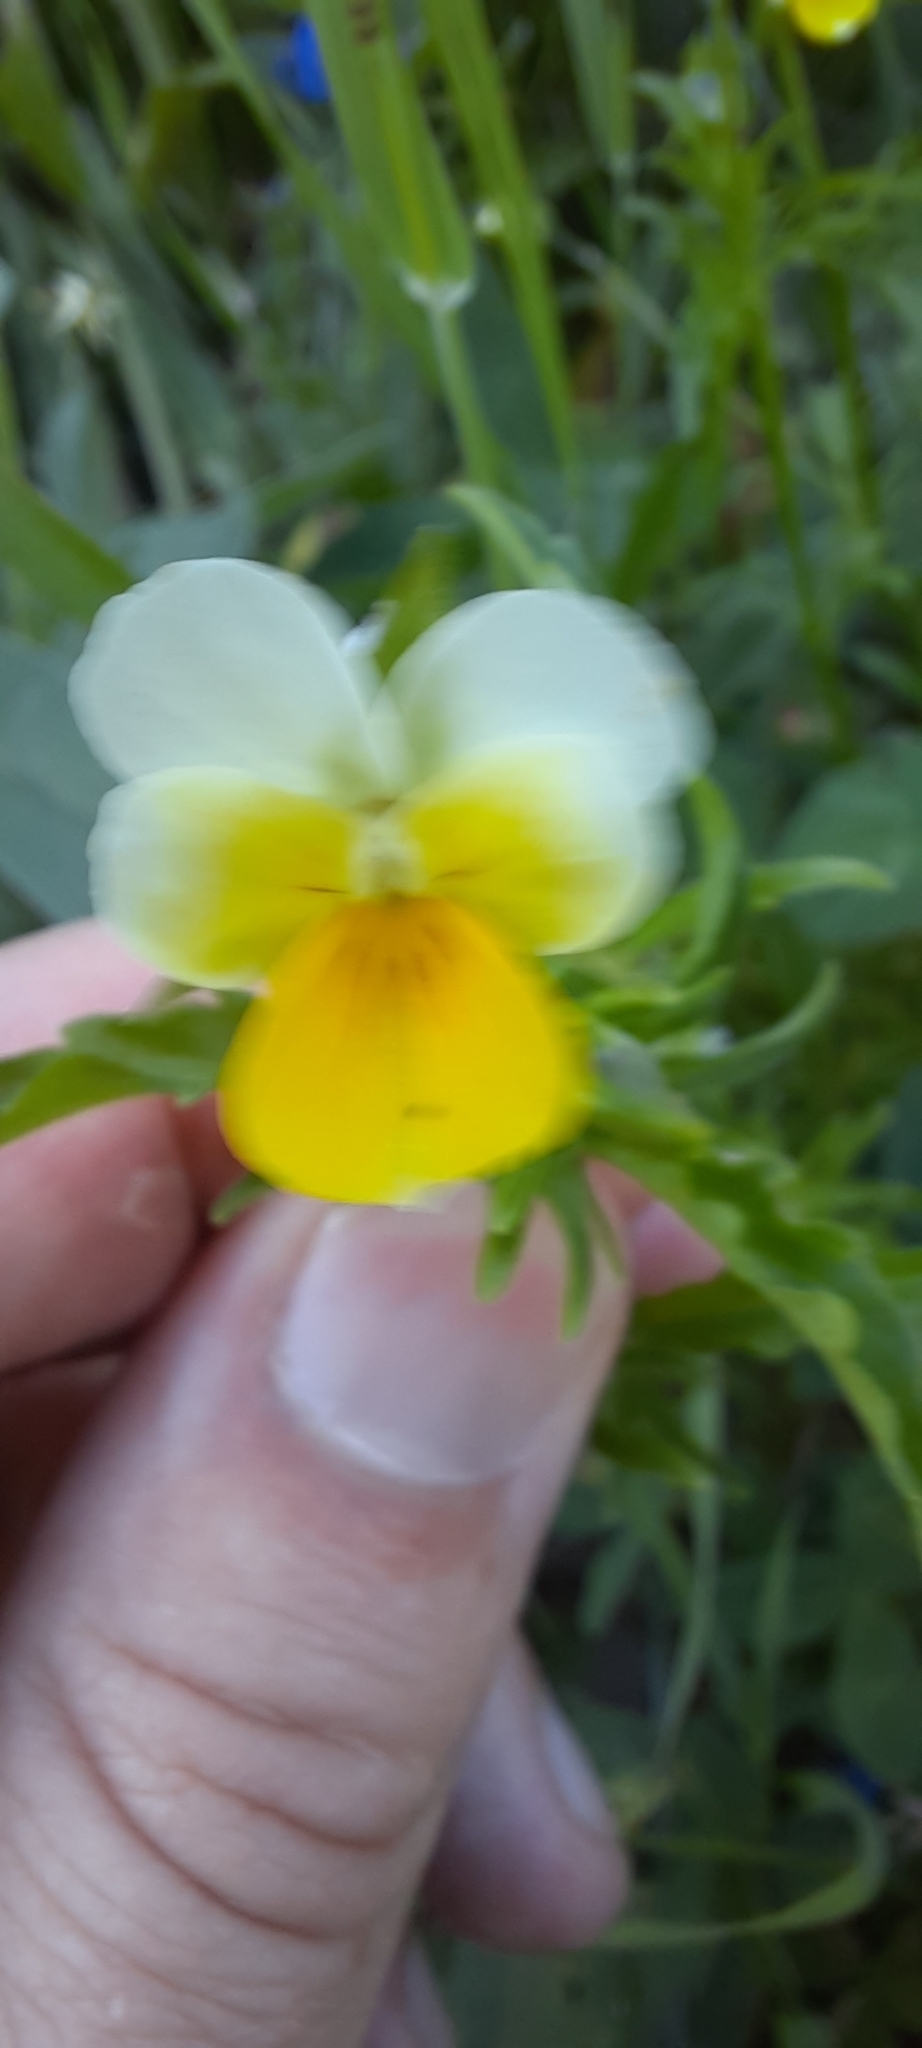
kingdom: Plantae
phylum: Tracheophyta
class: Magnoliopsida
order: Malpighiales
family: Violaceae
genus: Viola
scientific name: Viola arvensis
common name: Field pansy
